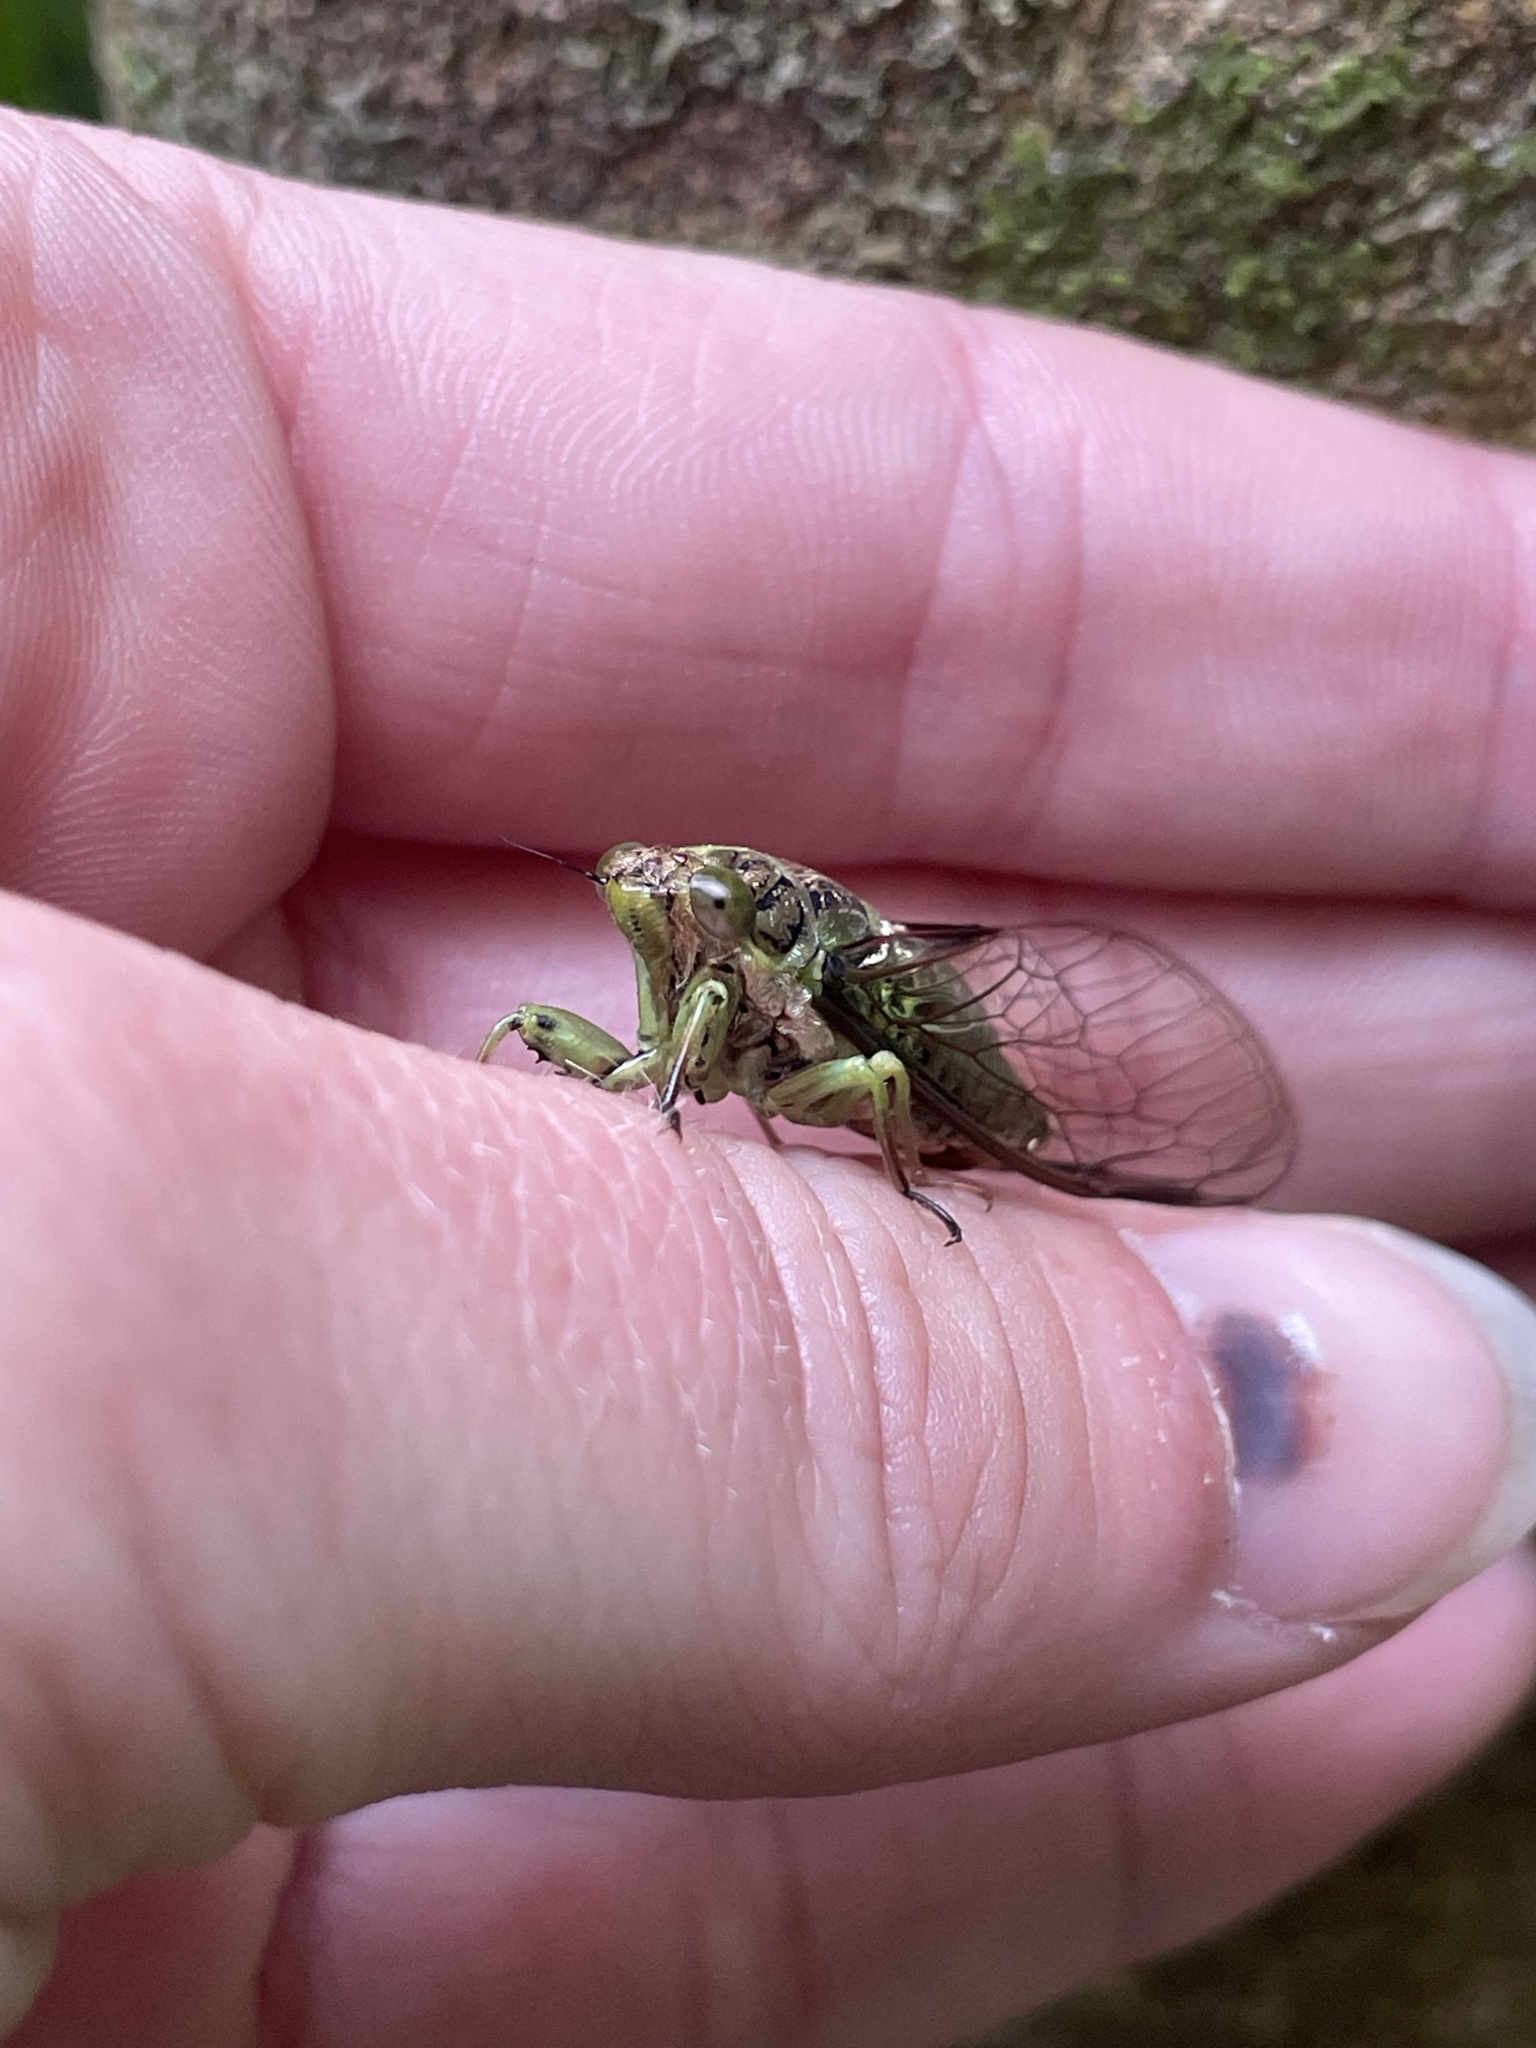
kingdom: Animalia
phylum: Arthropoda
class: Insecta
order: Hemiptera
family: Cicadidae
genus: Kikihia
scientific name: Kikihia scutellaris
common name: Lesser bronze cicada
